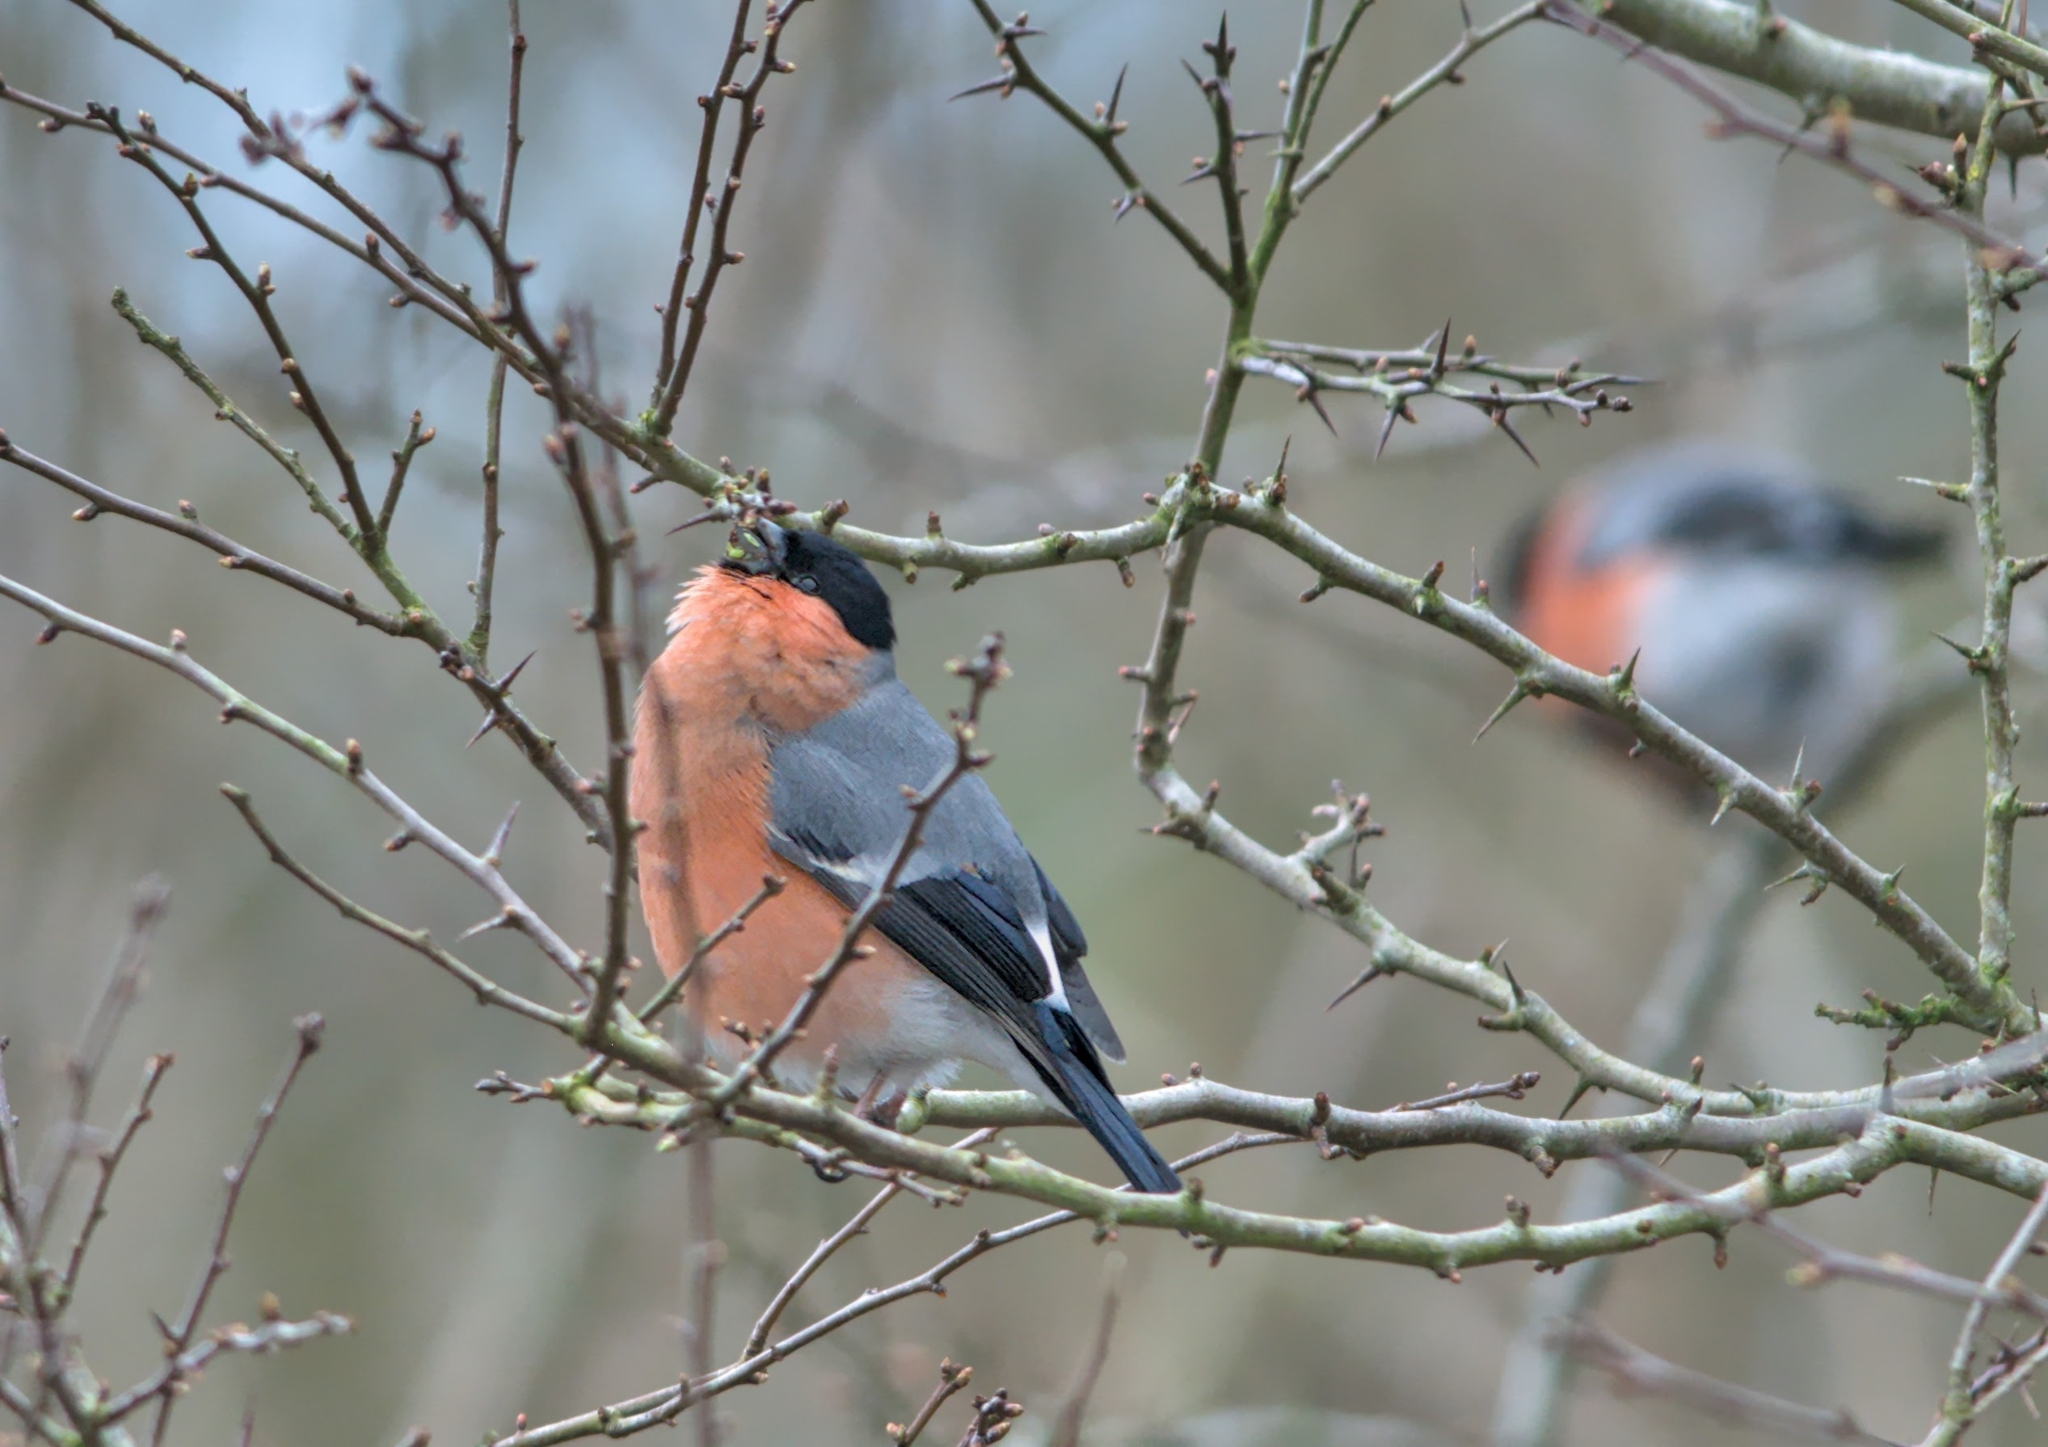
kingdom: Animalia
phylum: Chordata
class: Aves
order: Passeriformes
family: Fringillidae
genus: Pyrrhula
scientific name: Pyrrhula pyrrhula
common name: Eurasian bullfinch
